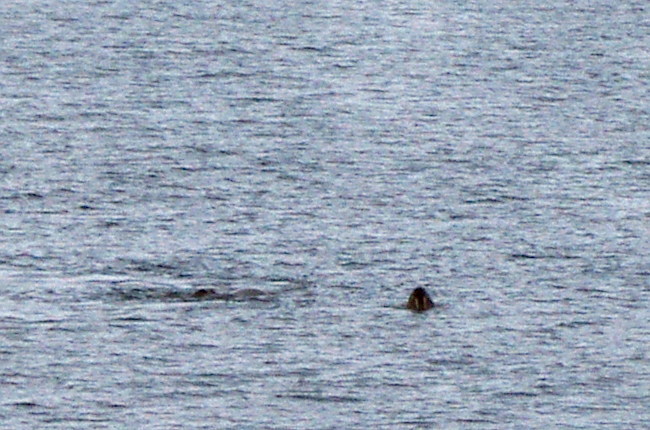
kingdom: Animalia
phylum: Chordata
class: Mammalia
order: Carnivora
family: Odobenidae
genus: Odobenus
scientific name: Odobenus rosmarus
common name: Walrus
